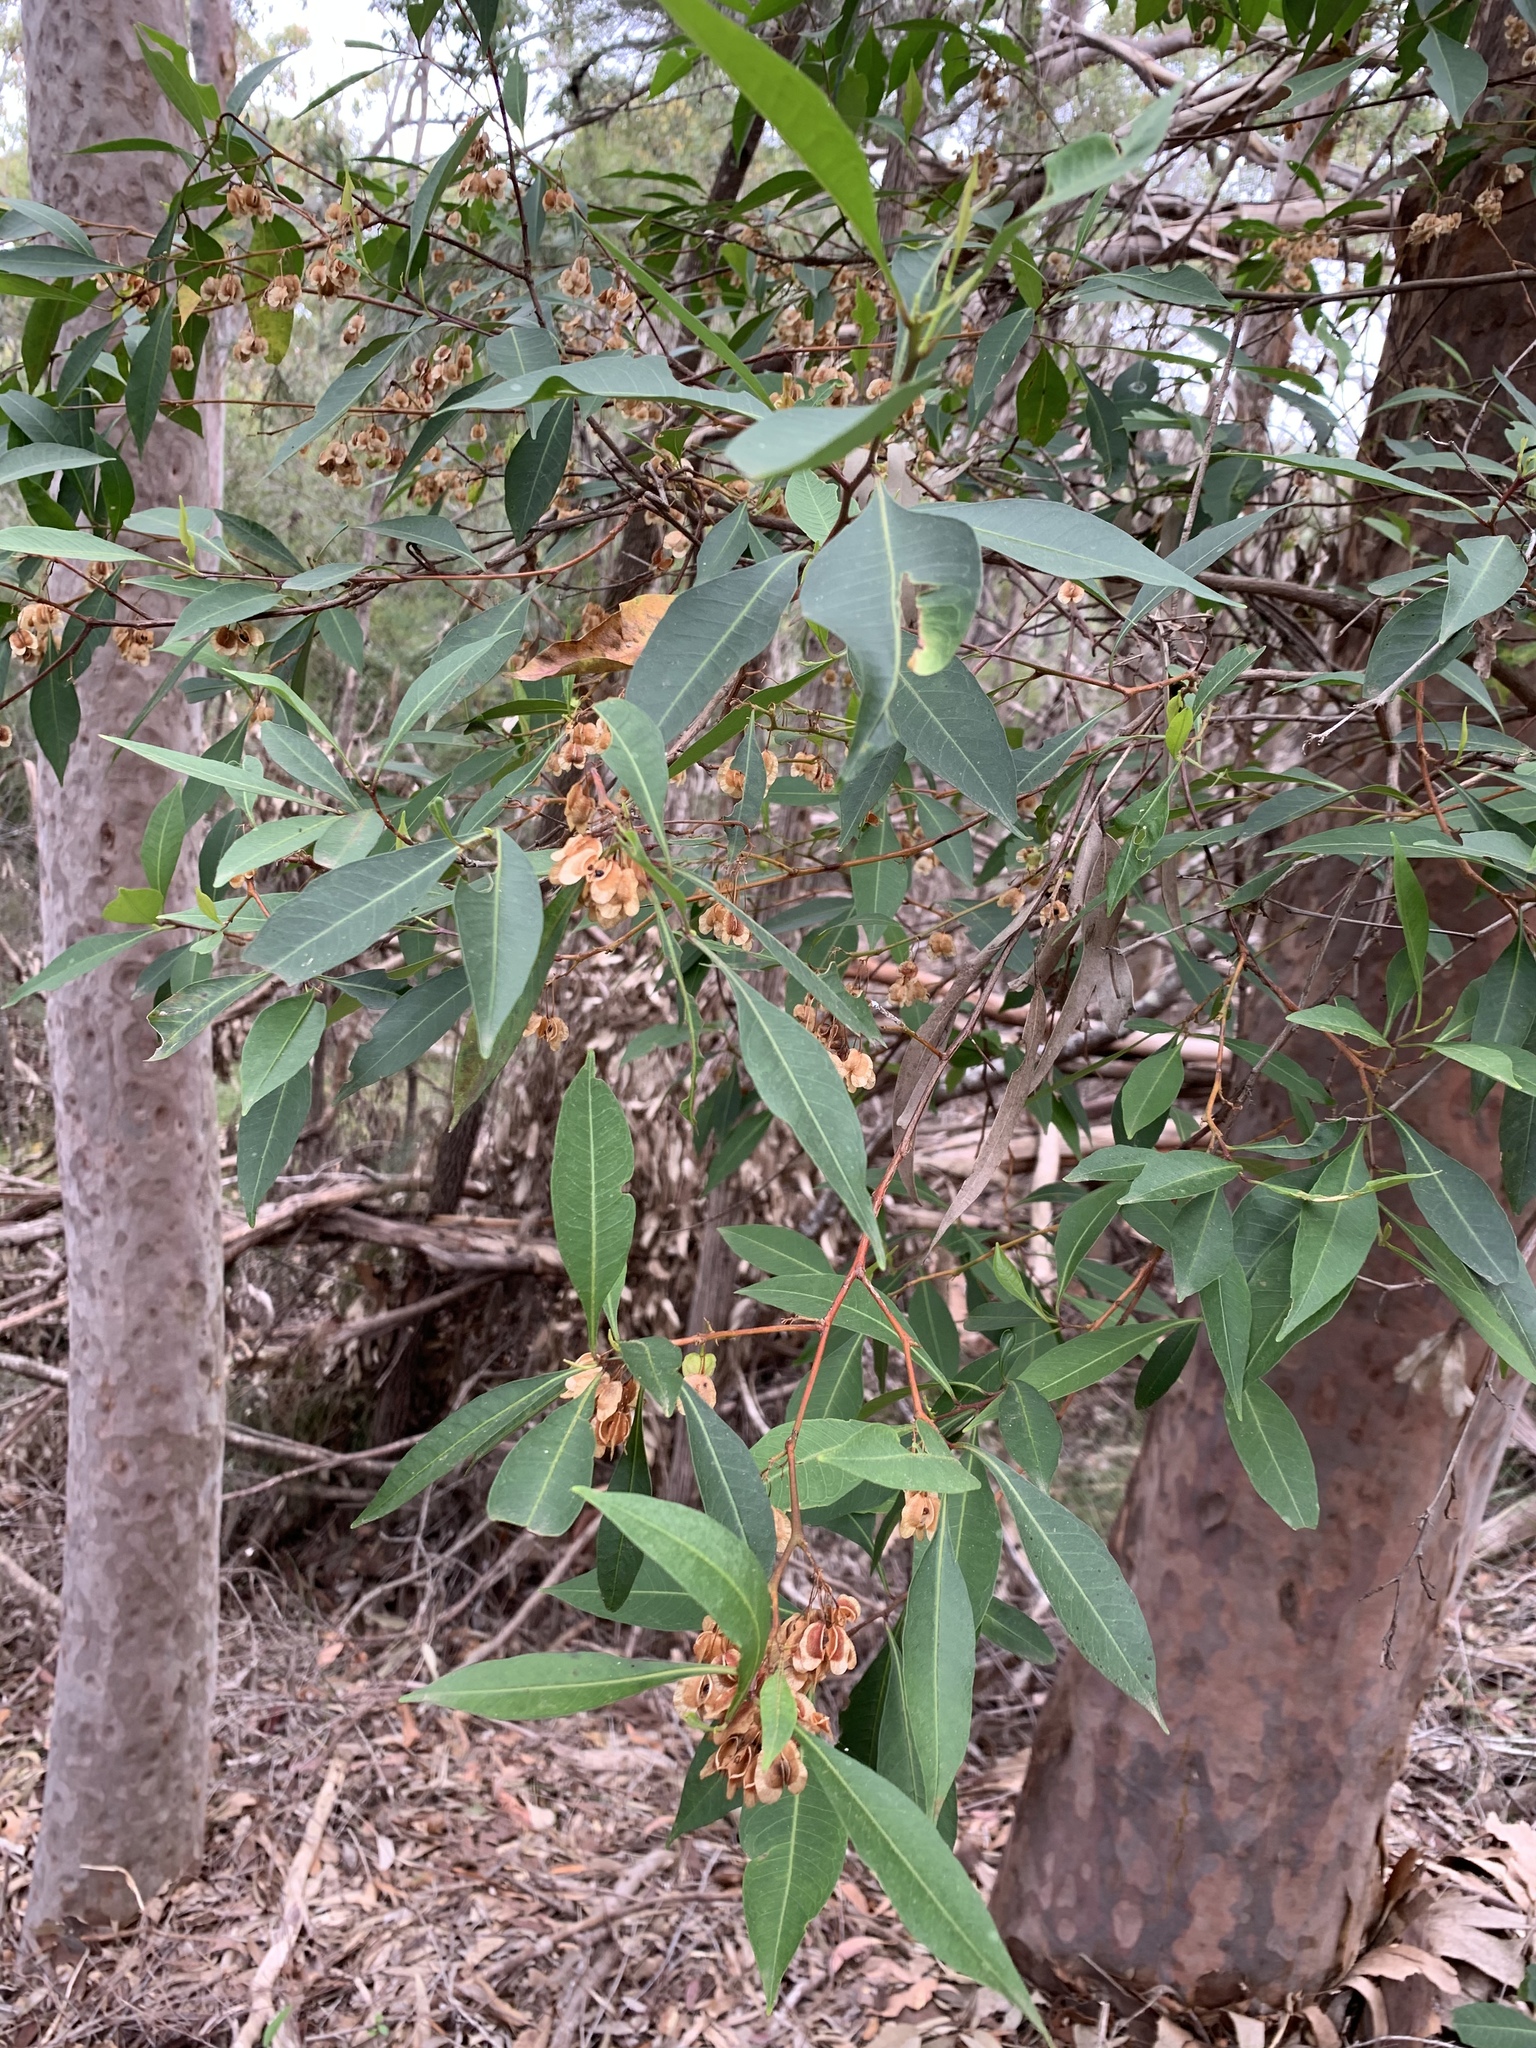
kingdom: Plantae
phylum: Tracheophyta
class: Magnoliopsida
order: Sapindales
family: Sapindaceae
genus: Dodonaea
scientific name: Dodonaea triquetra
